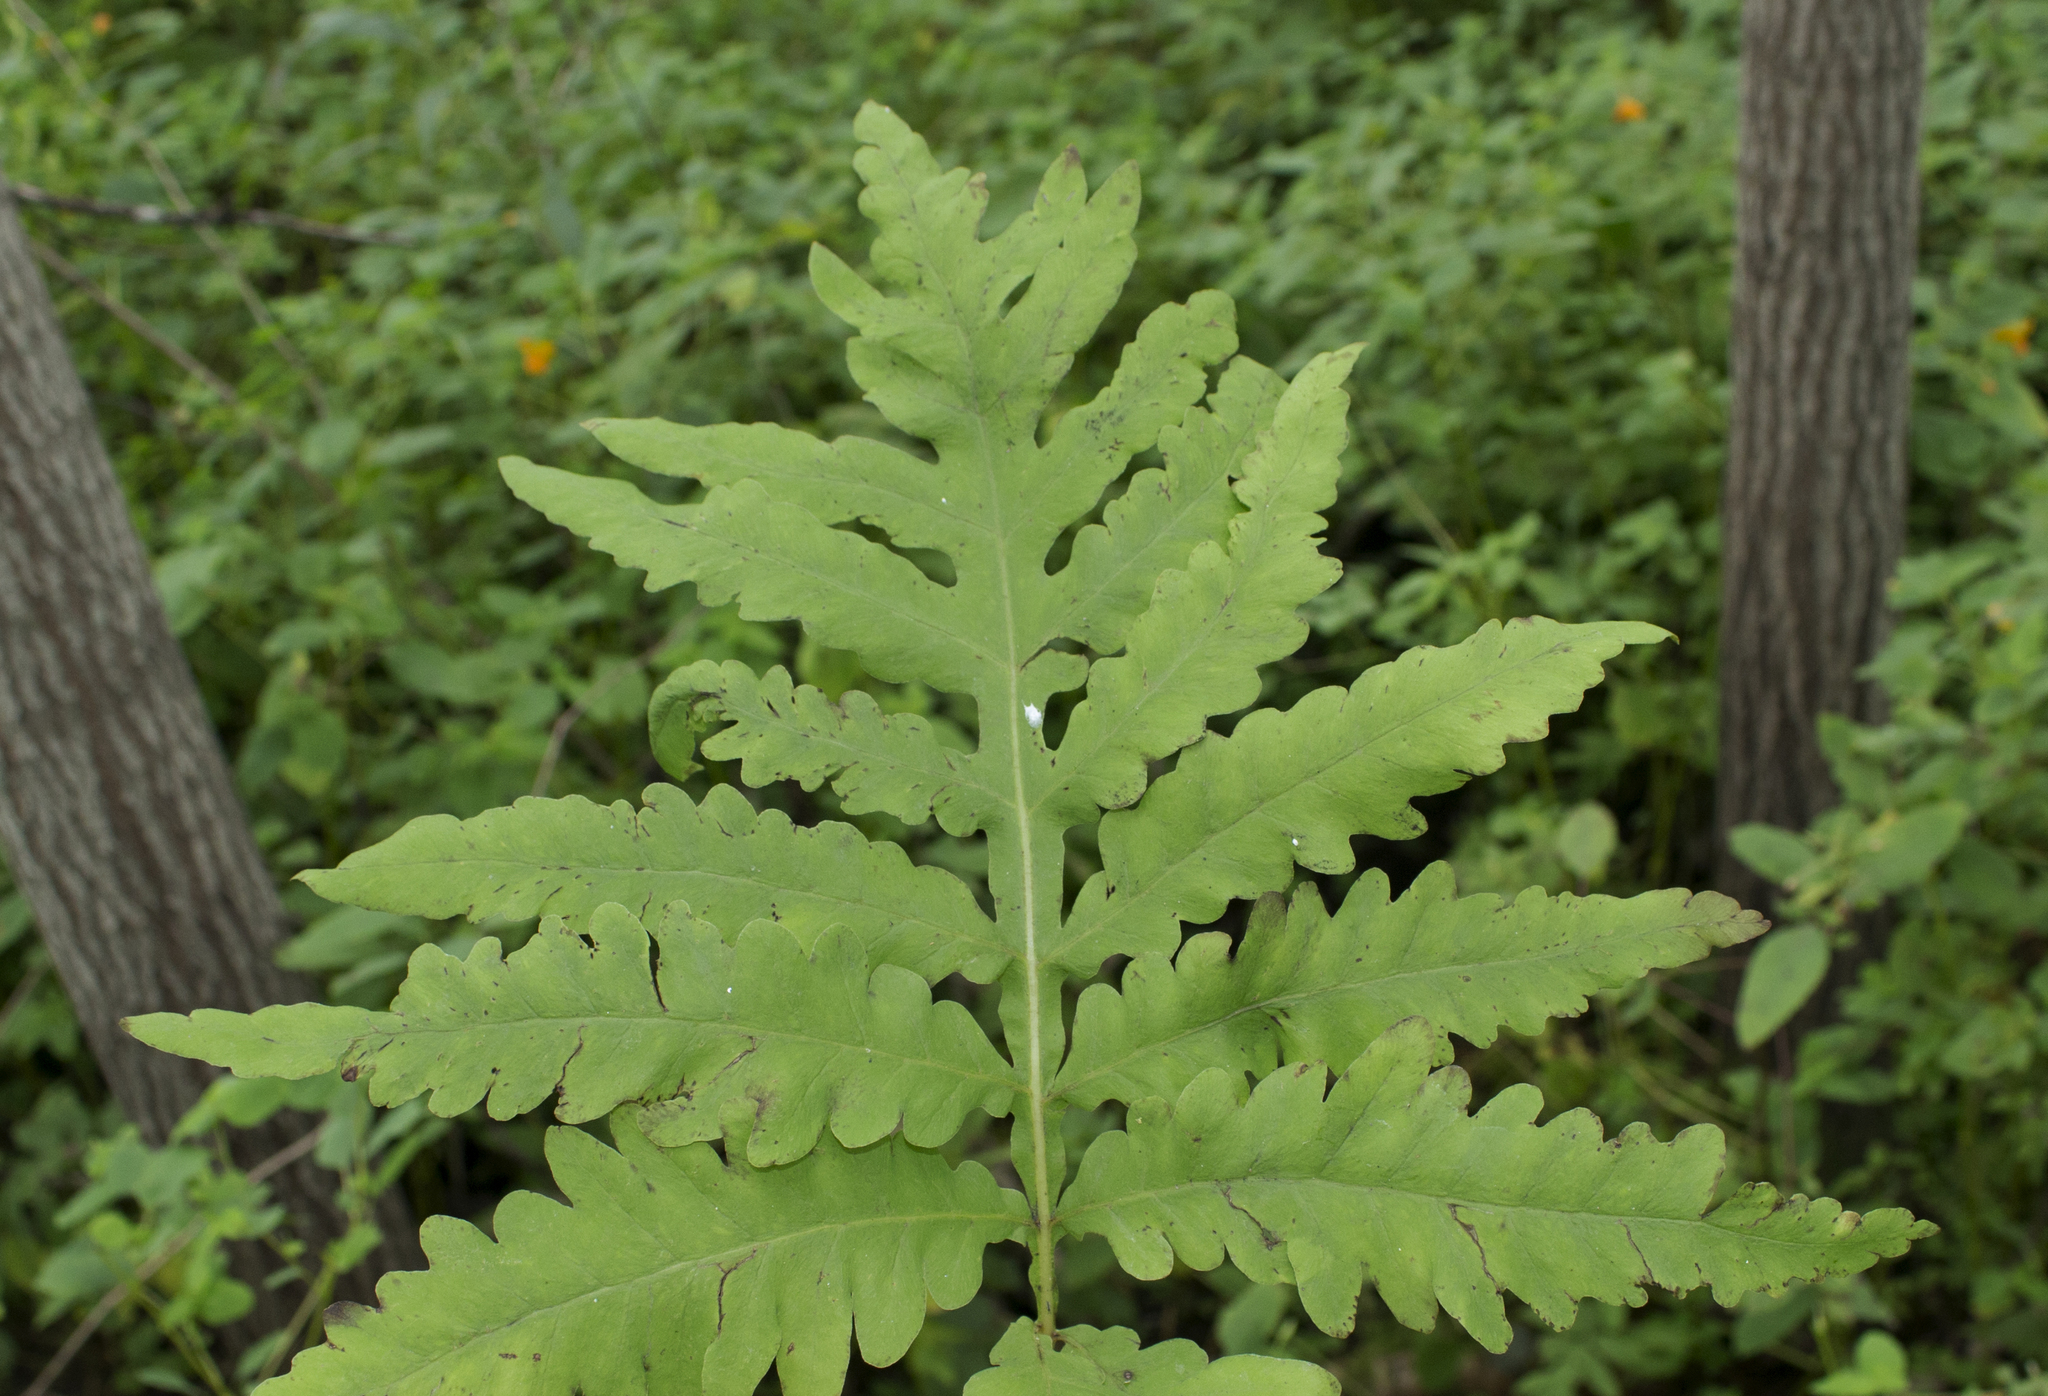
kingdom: Plantae
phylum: Tracheophyta
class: Polypodiopsida
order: Polypodiales
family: Onocleaceae
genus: Onoclea
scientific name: Onoclea sensibilis
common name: Sensitive fern
